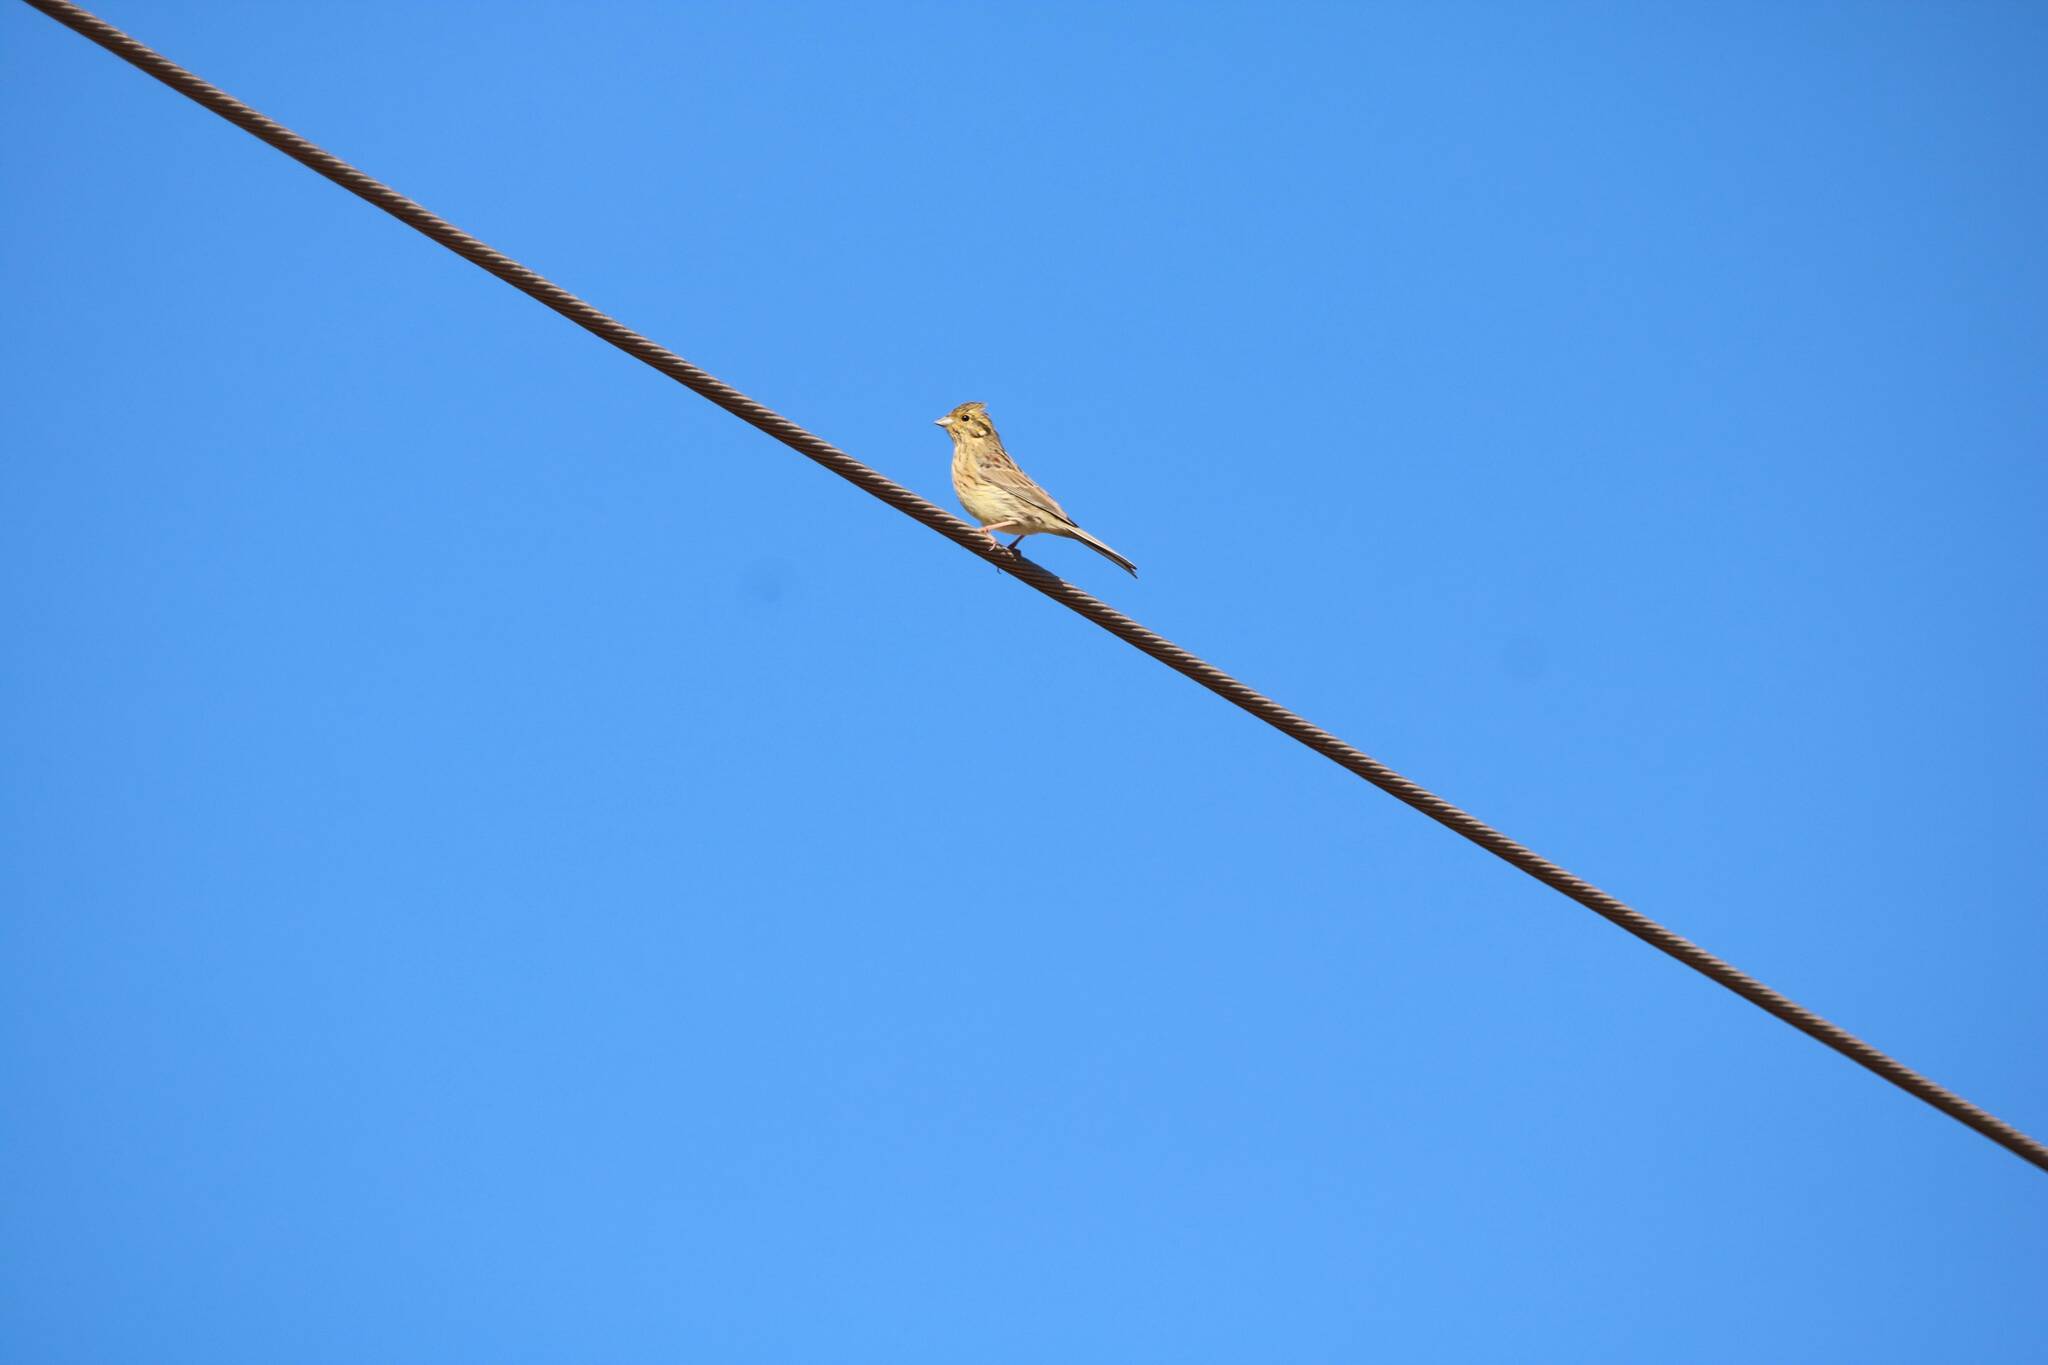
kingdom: Animalia
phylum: Chordata
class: Aves
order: Passeriformes
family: Emberizidae
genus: Emberiza
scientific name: Emberiza cirlus
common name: Cirl bunting
